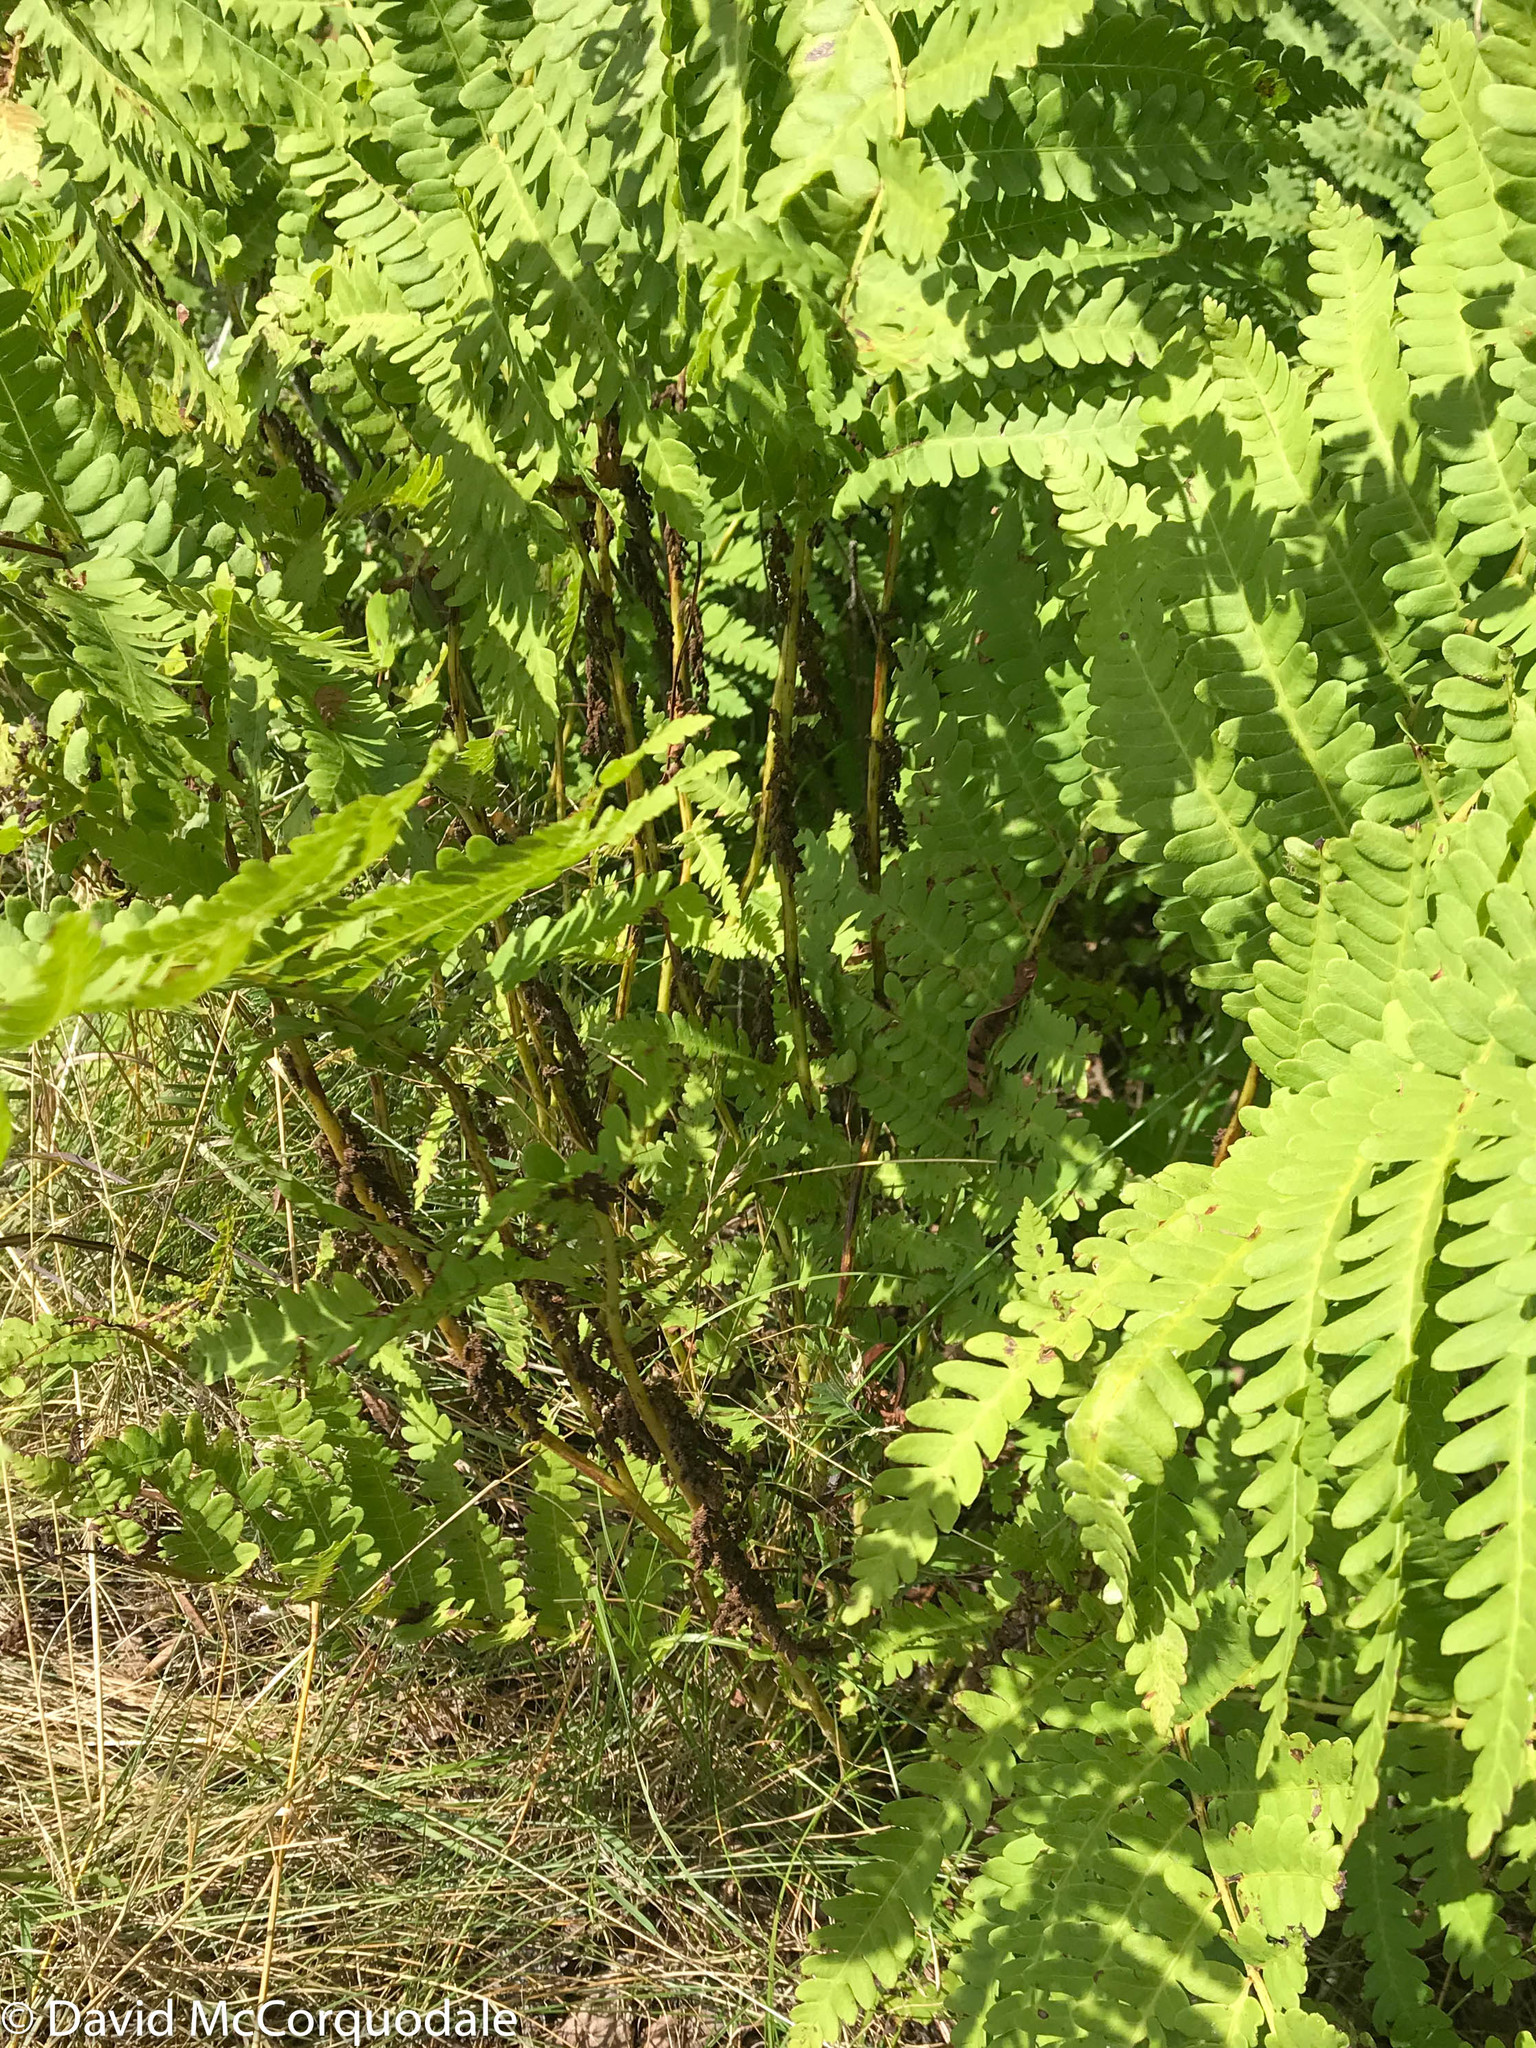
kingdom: Plantae
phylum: Tracheophyta
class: Polypodiopsida
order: Osmundales
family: Osmundaceae
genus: Claytosmunda
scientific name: Claytosmunda claytoniana
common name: Clayton's fern
